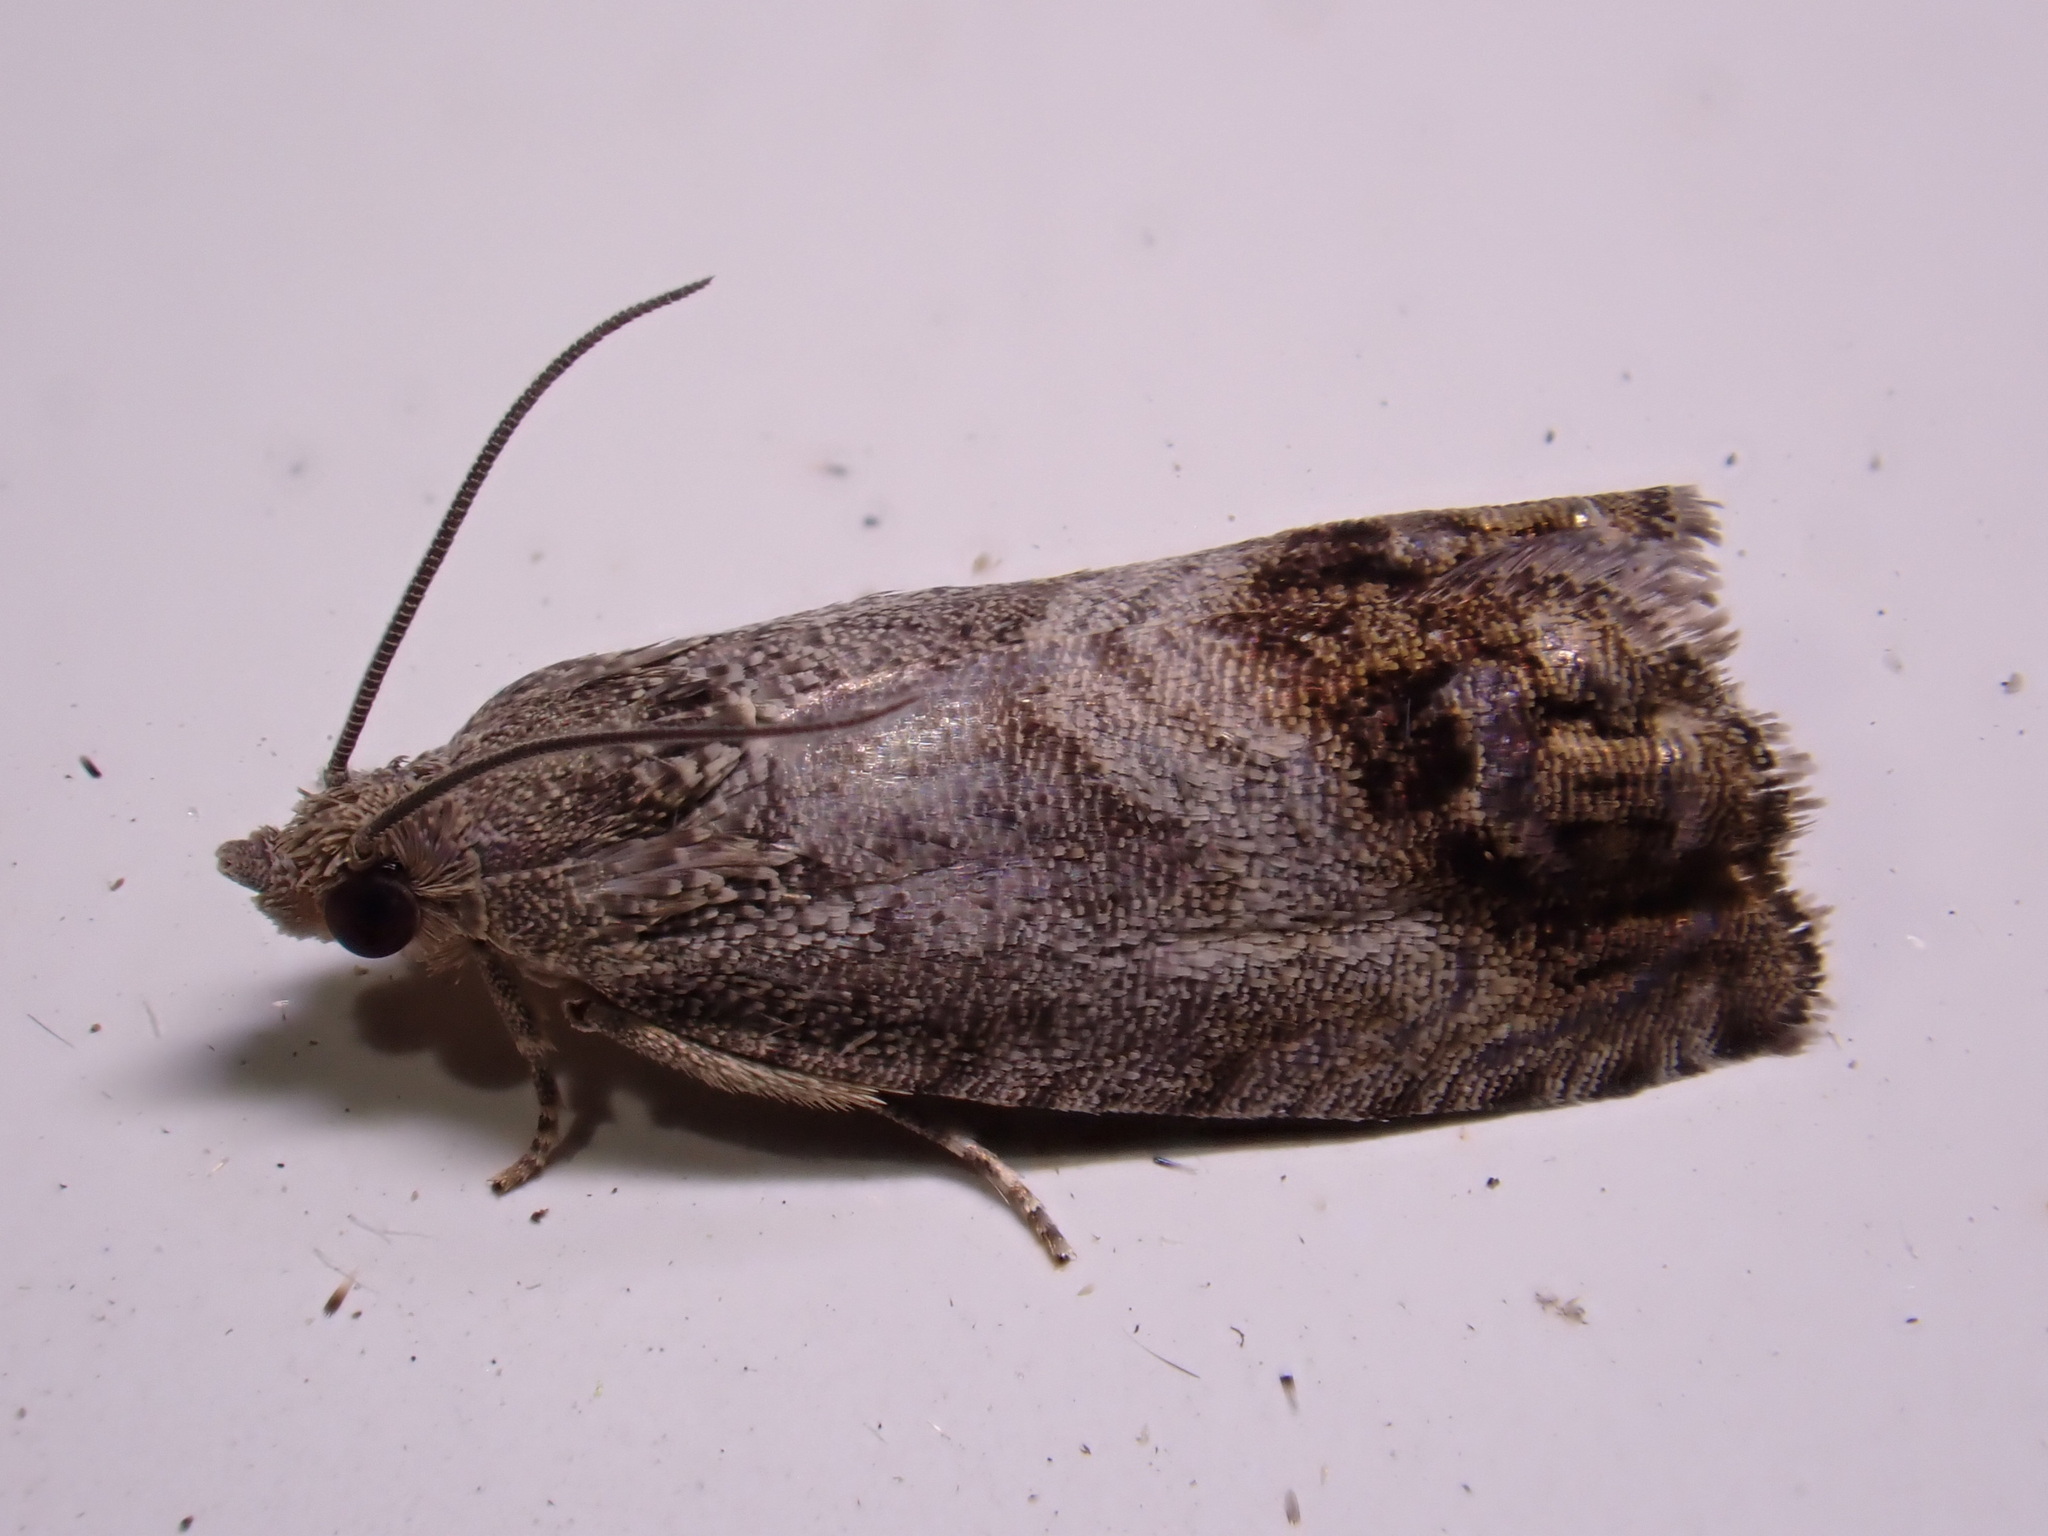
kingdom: Animalia
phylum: Arthropoda
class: Insecta
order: Lepidoptera
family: Tortricidae
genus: Cydia
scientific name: Cydia splendana
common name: De: kastanienwickler, eichenwickler es: oruga de la castaña fr: carpocapse des châtaignes it: cidia o tortrice tardiva delle castagne pt: bichado das castanhas gb: acorn moth, chestnut fruit tortrix
